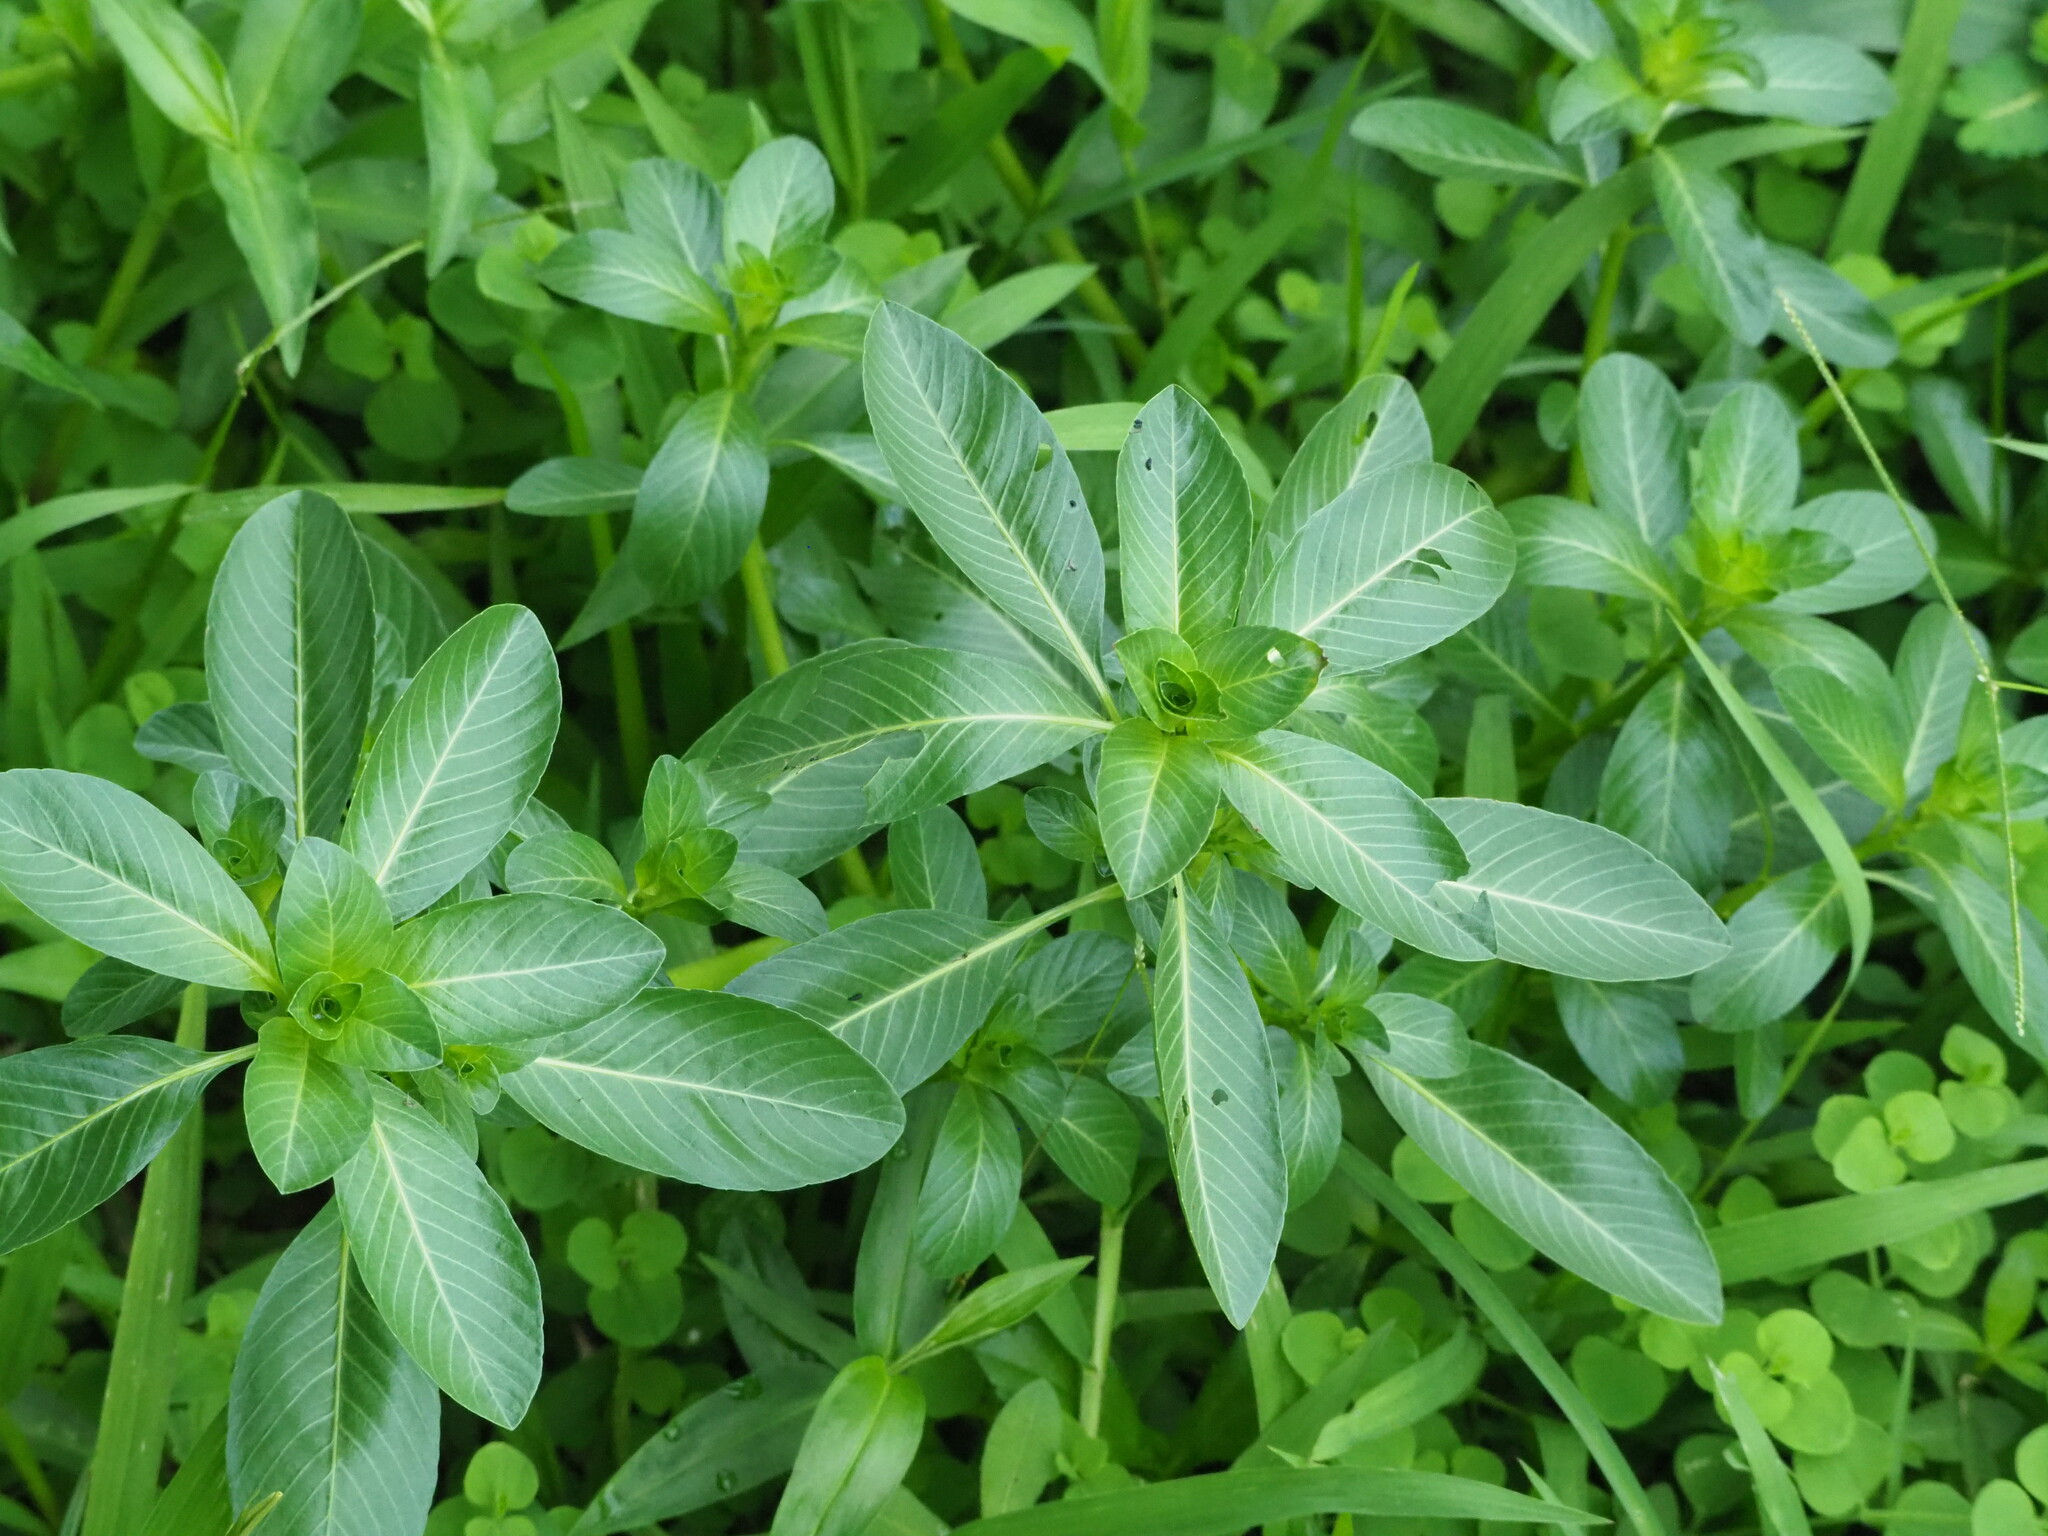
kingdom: Plantae
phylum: Tracheophyta
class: Magnoliopsida
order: Myrtales
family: Onagraceae
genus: Ludwigia
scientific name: Ludwigia taiwanensis
